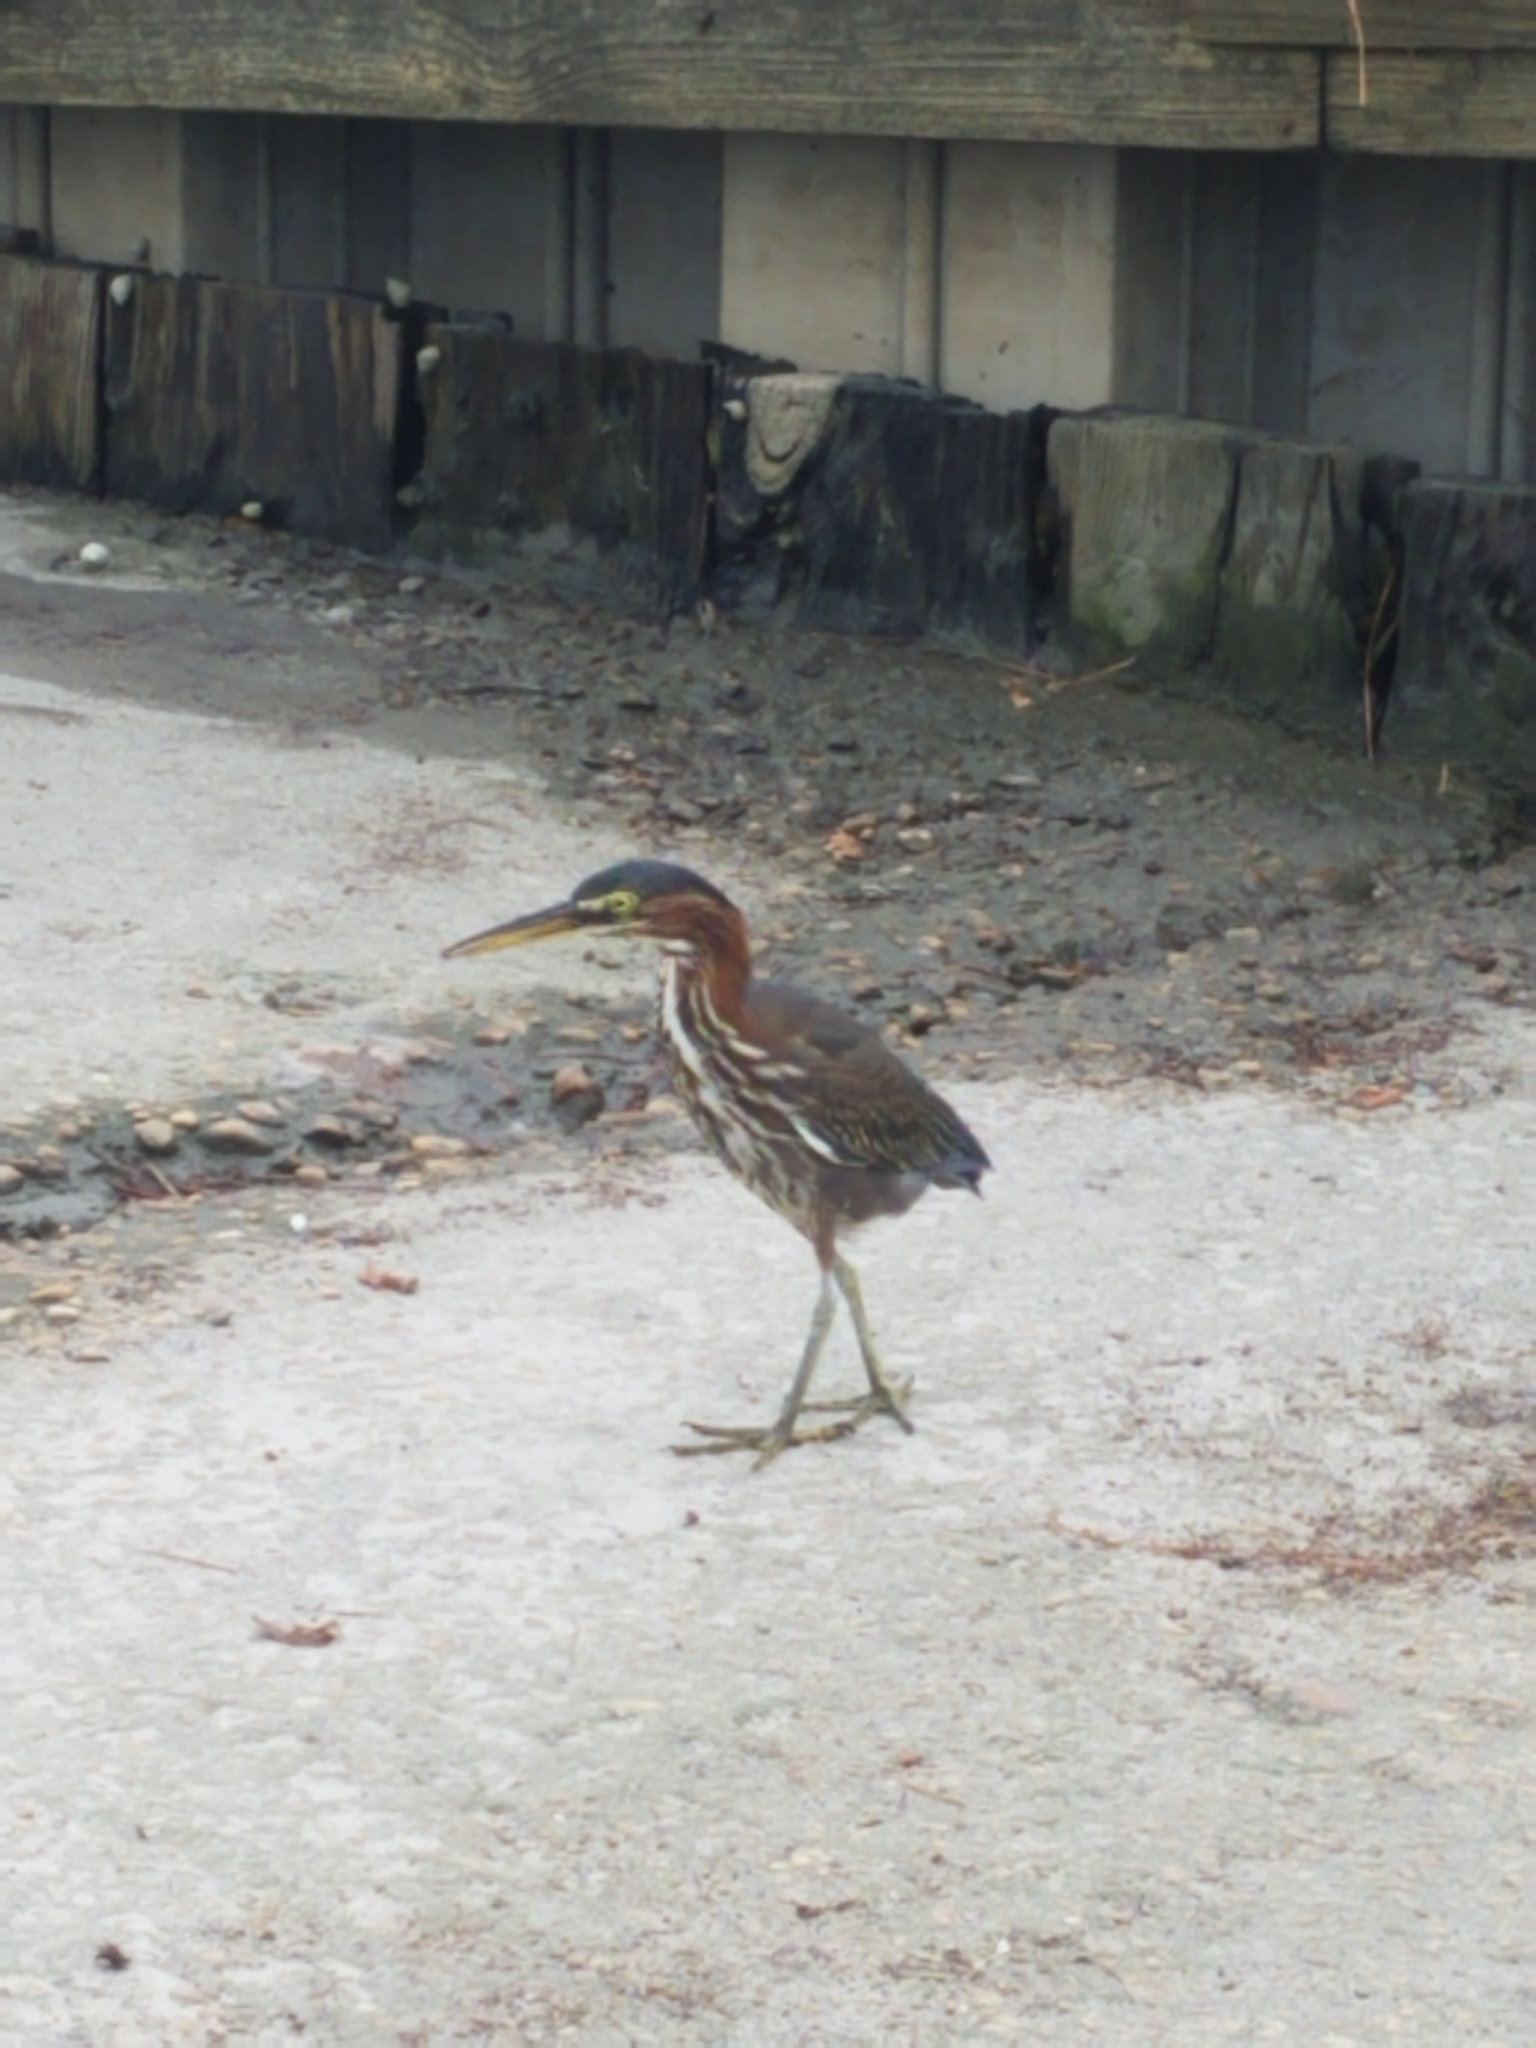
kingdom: Animalia
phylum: Chordata
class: Aves
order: Pelecaniformes
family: Ardeidae
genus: Butorides
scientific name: Butorides virescens
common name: Green heron
